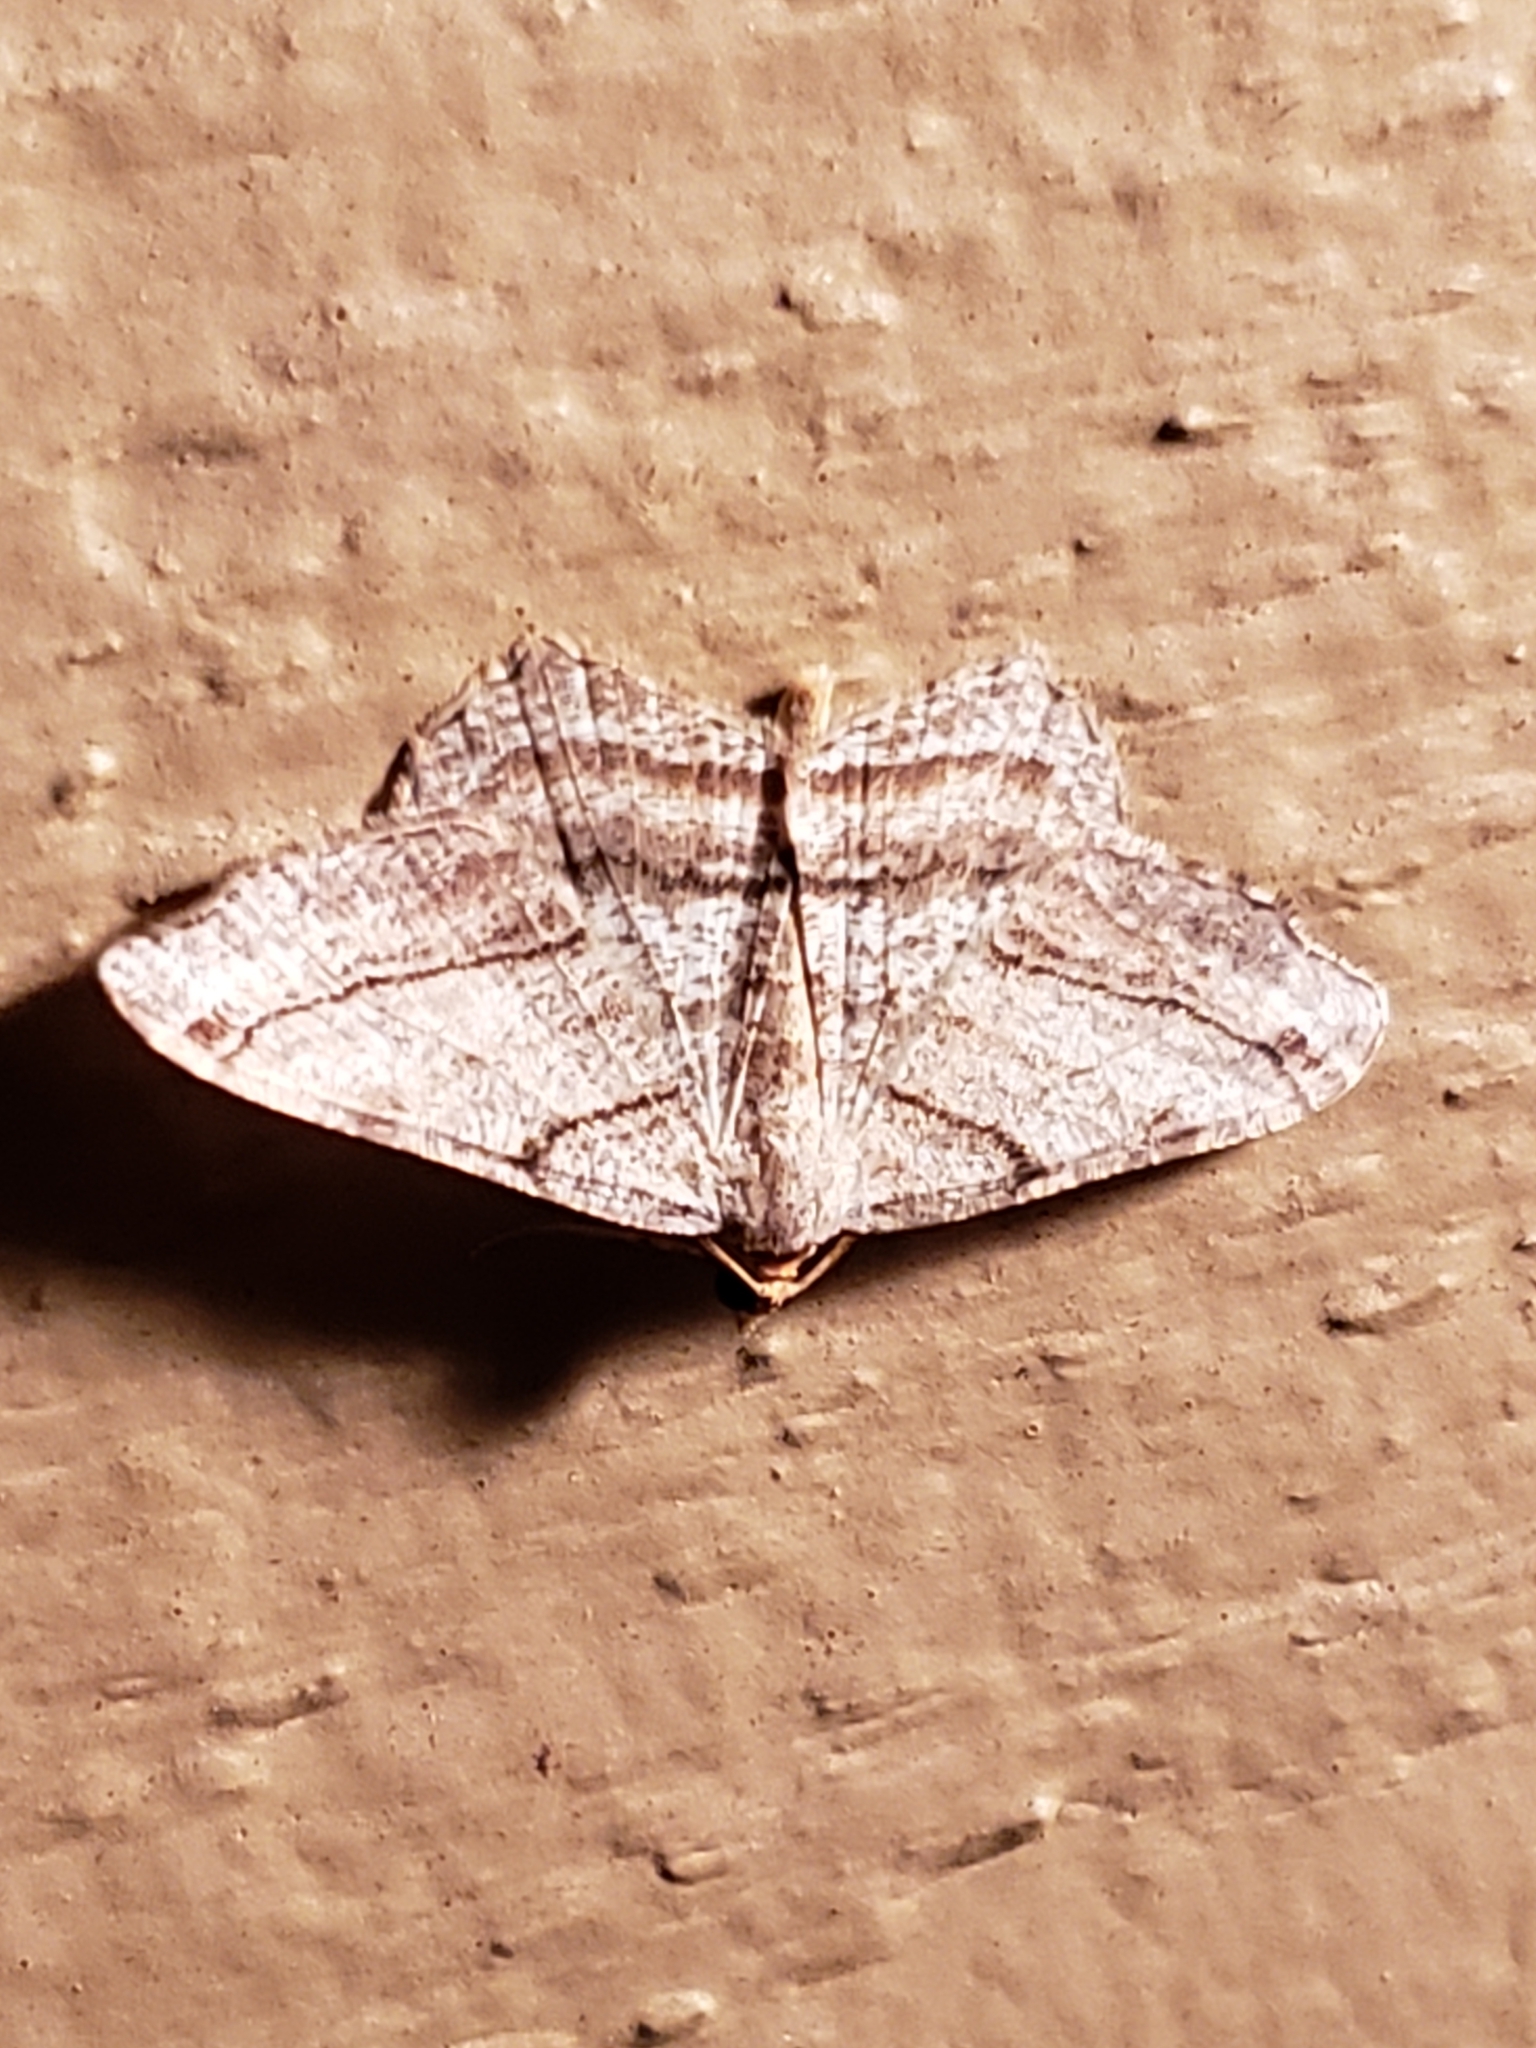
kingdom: Animalia
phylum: Arthropoda
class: Insecta
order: Lepidoptera
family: Geometridae
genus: Macaria
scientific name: Macaria multilineata
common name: Many-lined angle
